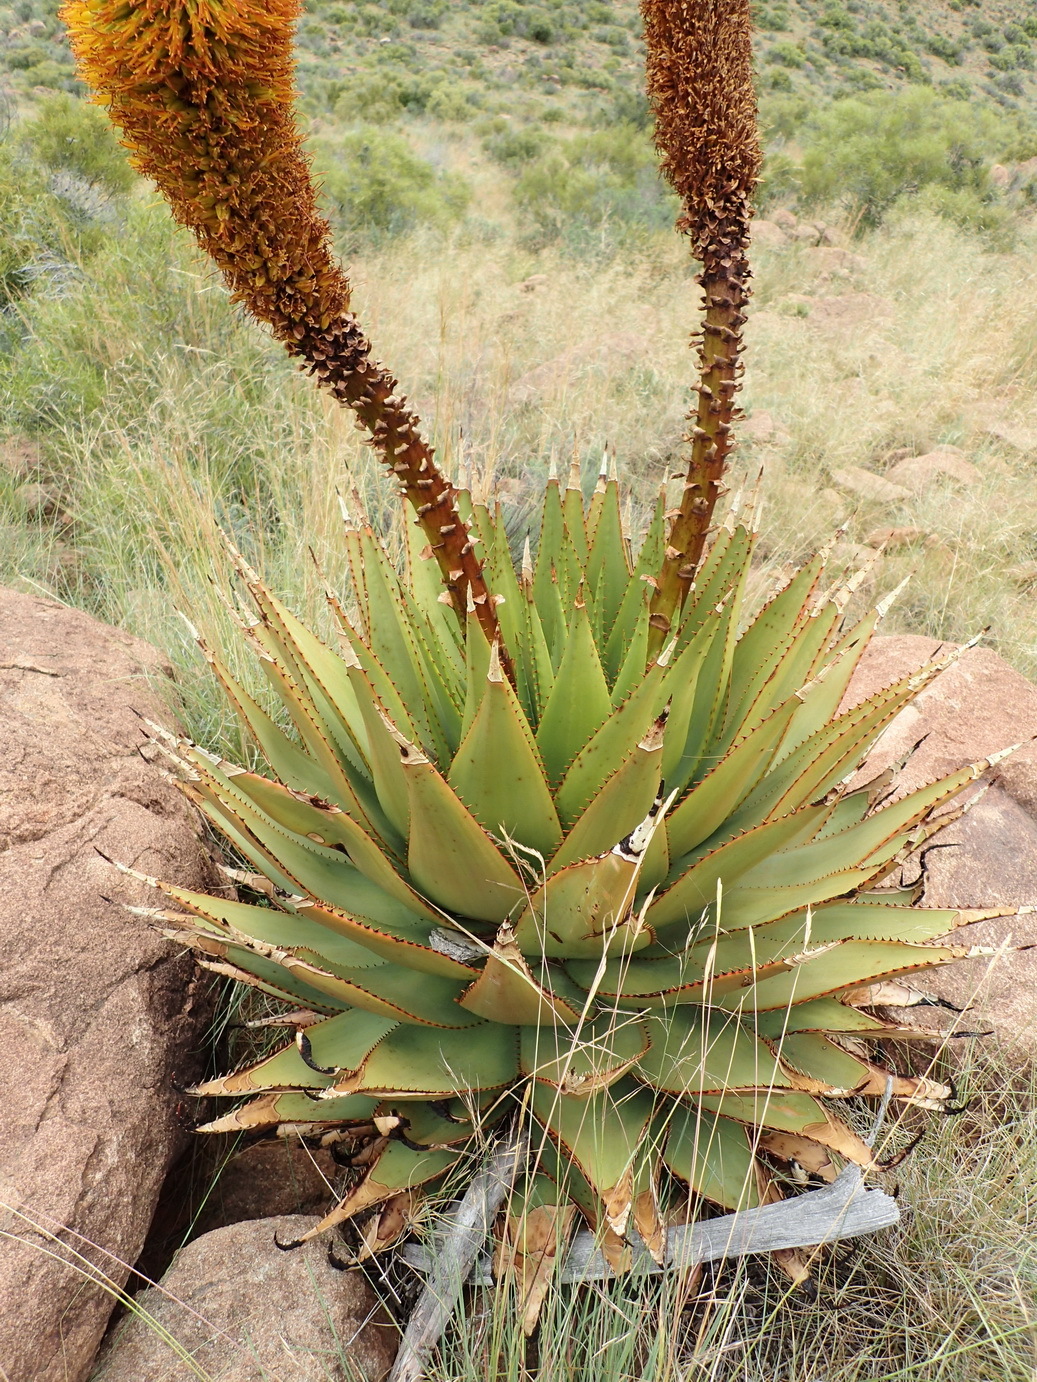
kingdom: Plantae
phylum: Tracheophyta
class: Liliopsida
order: Asparagales
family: Asphodelaceae
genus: Aloe
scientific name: Aloe broomii
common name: Berg alwyn
